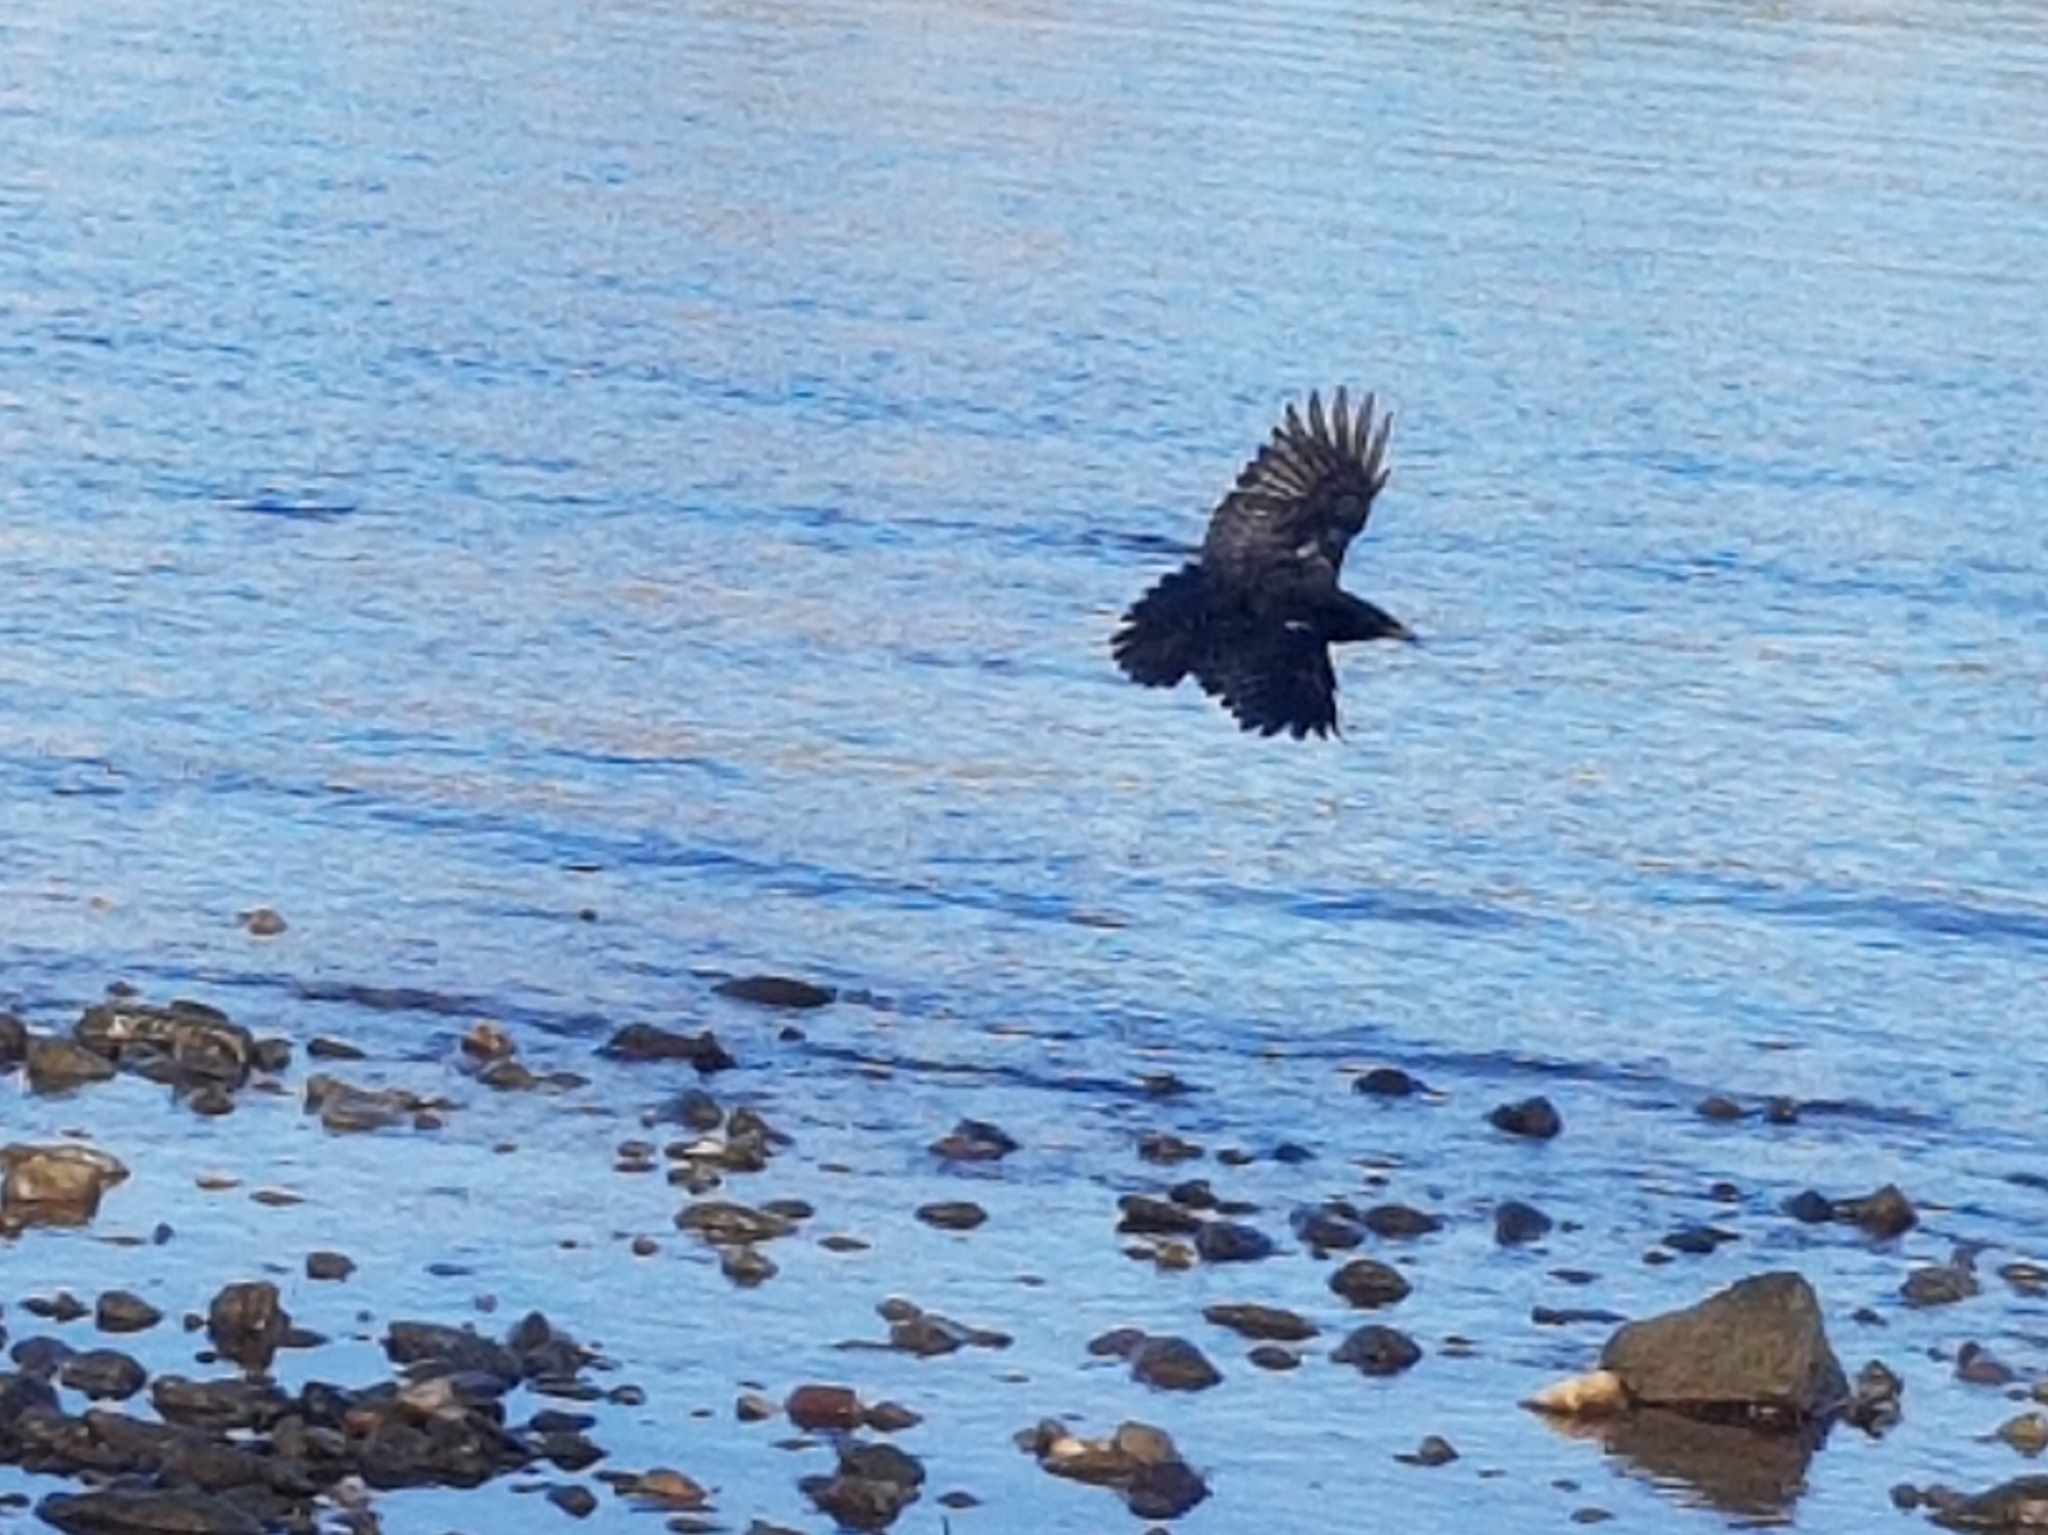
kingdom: Animalia
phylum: Chordata
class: Aves
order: Passeriformes
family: Corvidae
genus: Corvus
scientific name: Corvus corone
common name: Carrion crow
